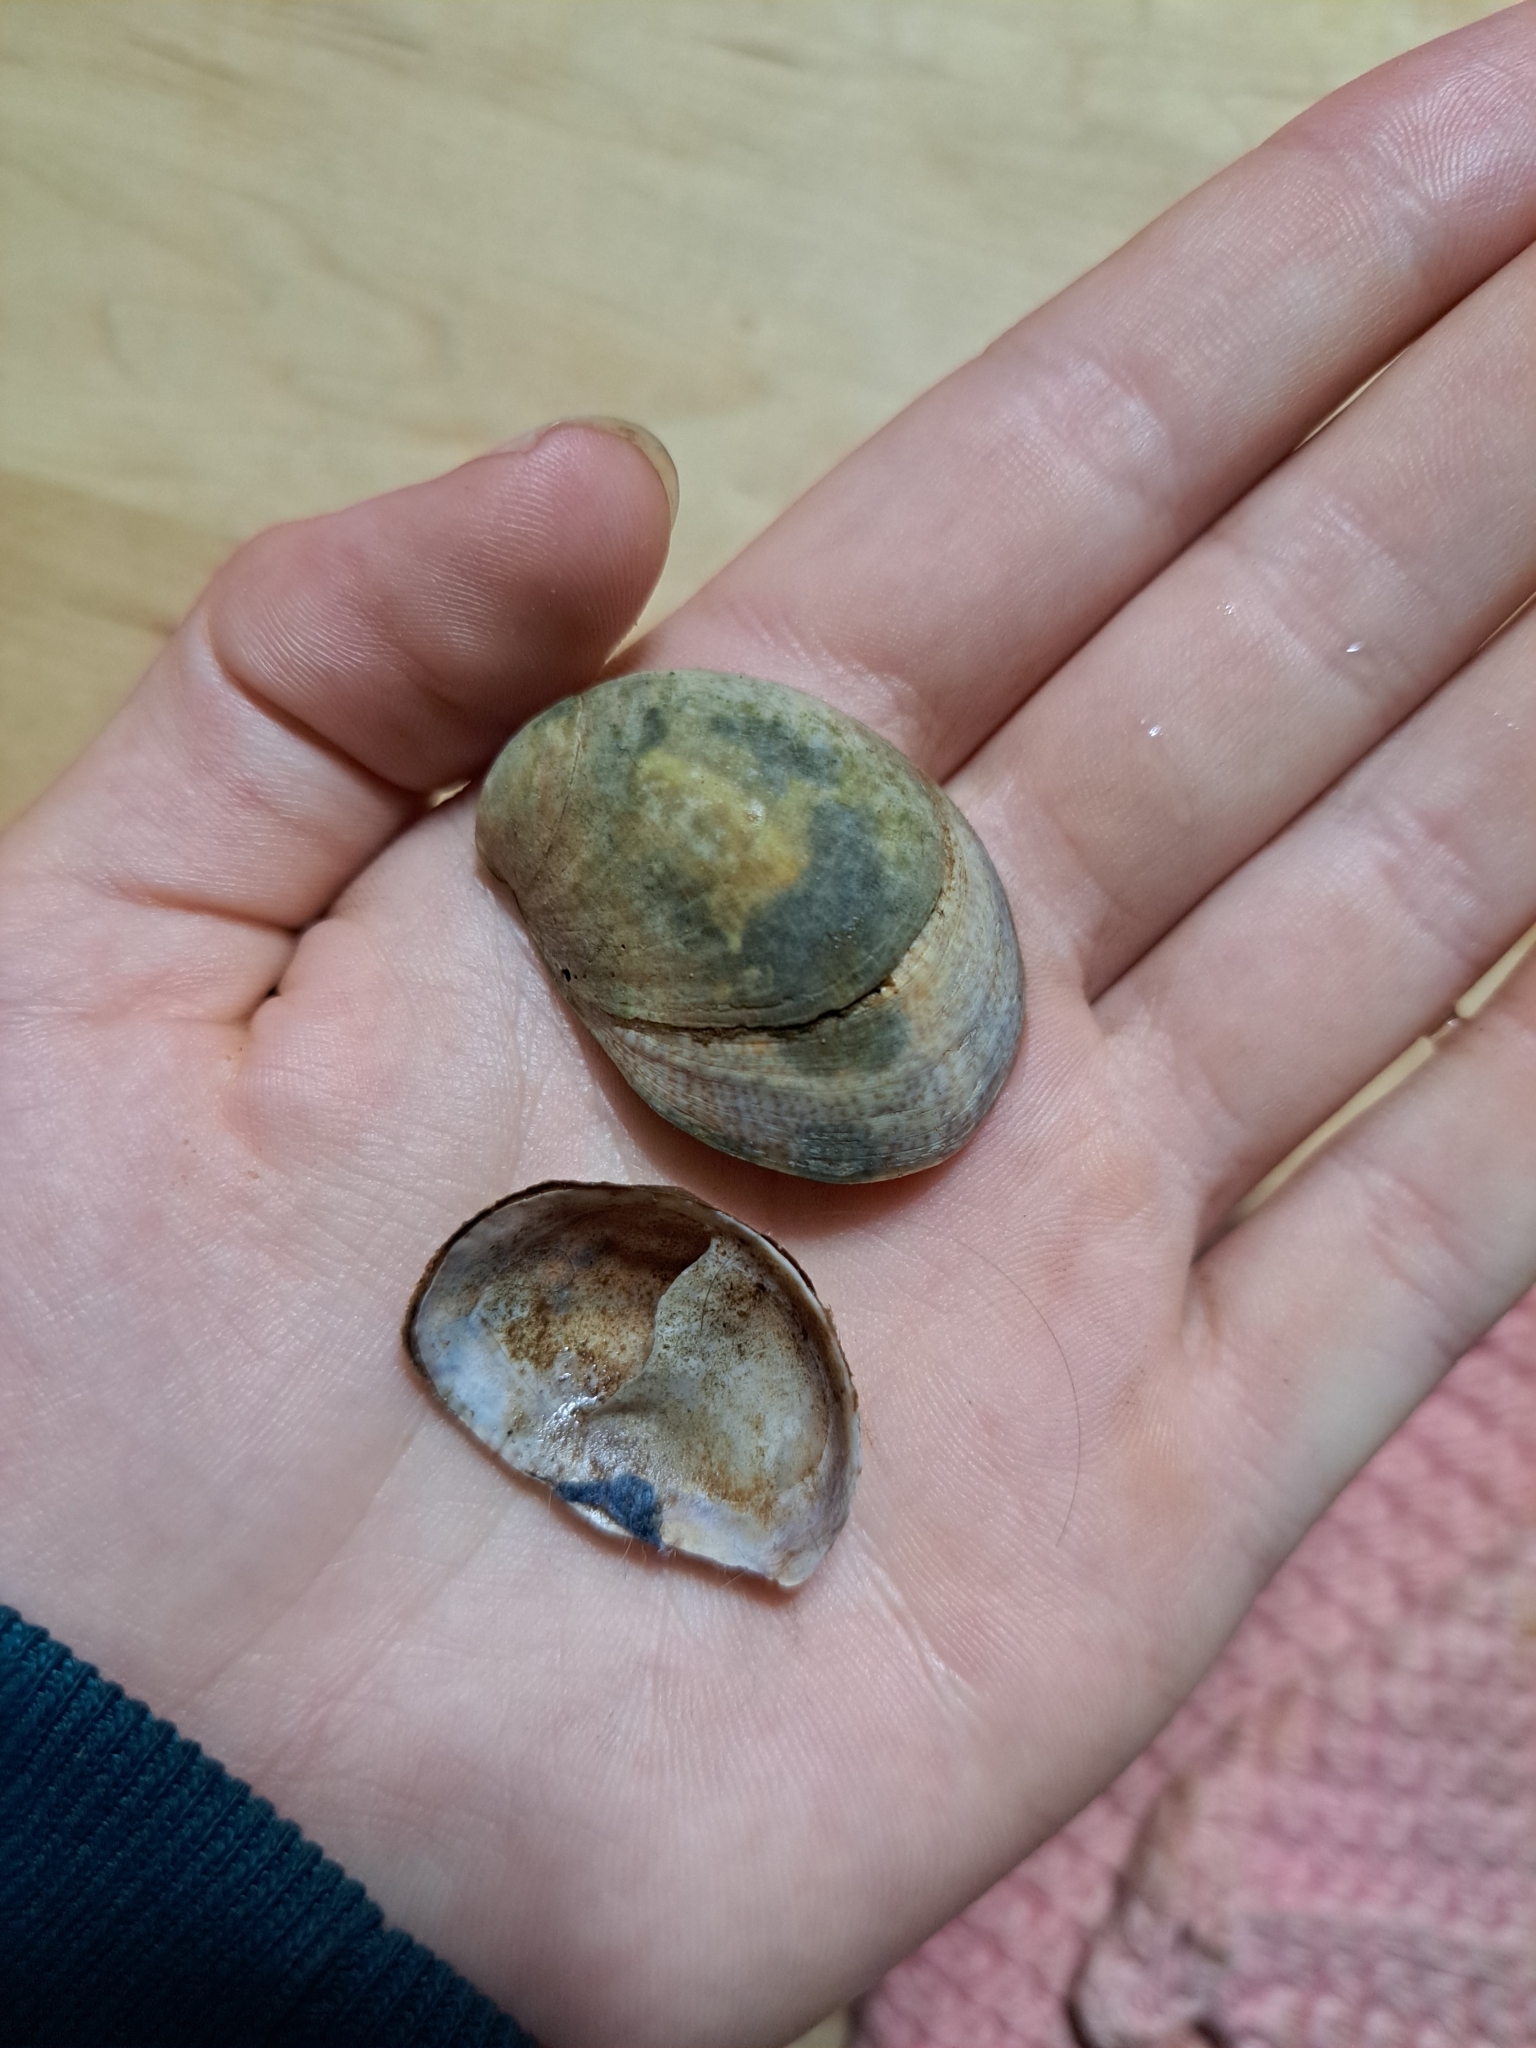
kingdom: Animalia
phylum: Mollusca
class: Gastropoda
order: Littorinimorpha
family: Calyptraeidae
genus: Crepidula
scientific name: Crepidula fornicata
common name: Slipper limpet
